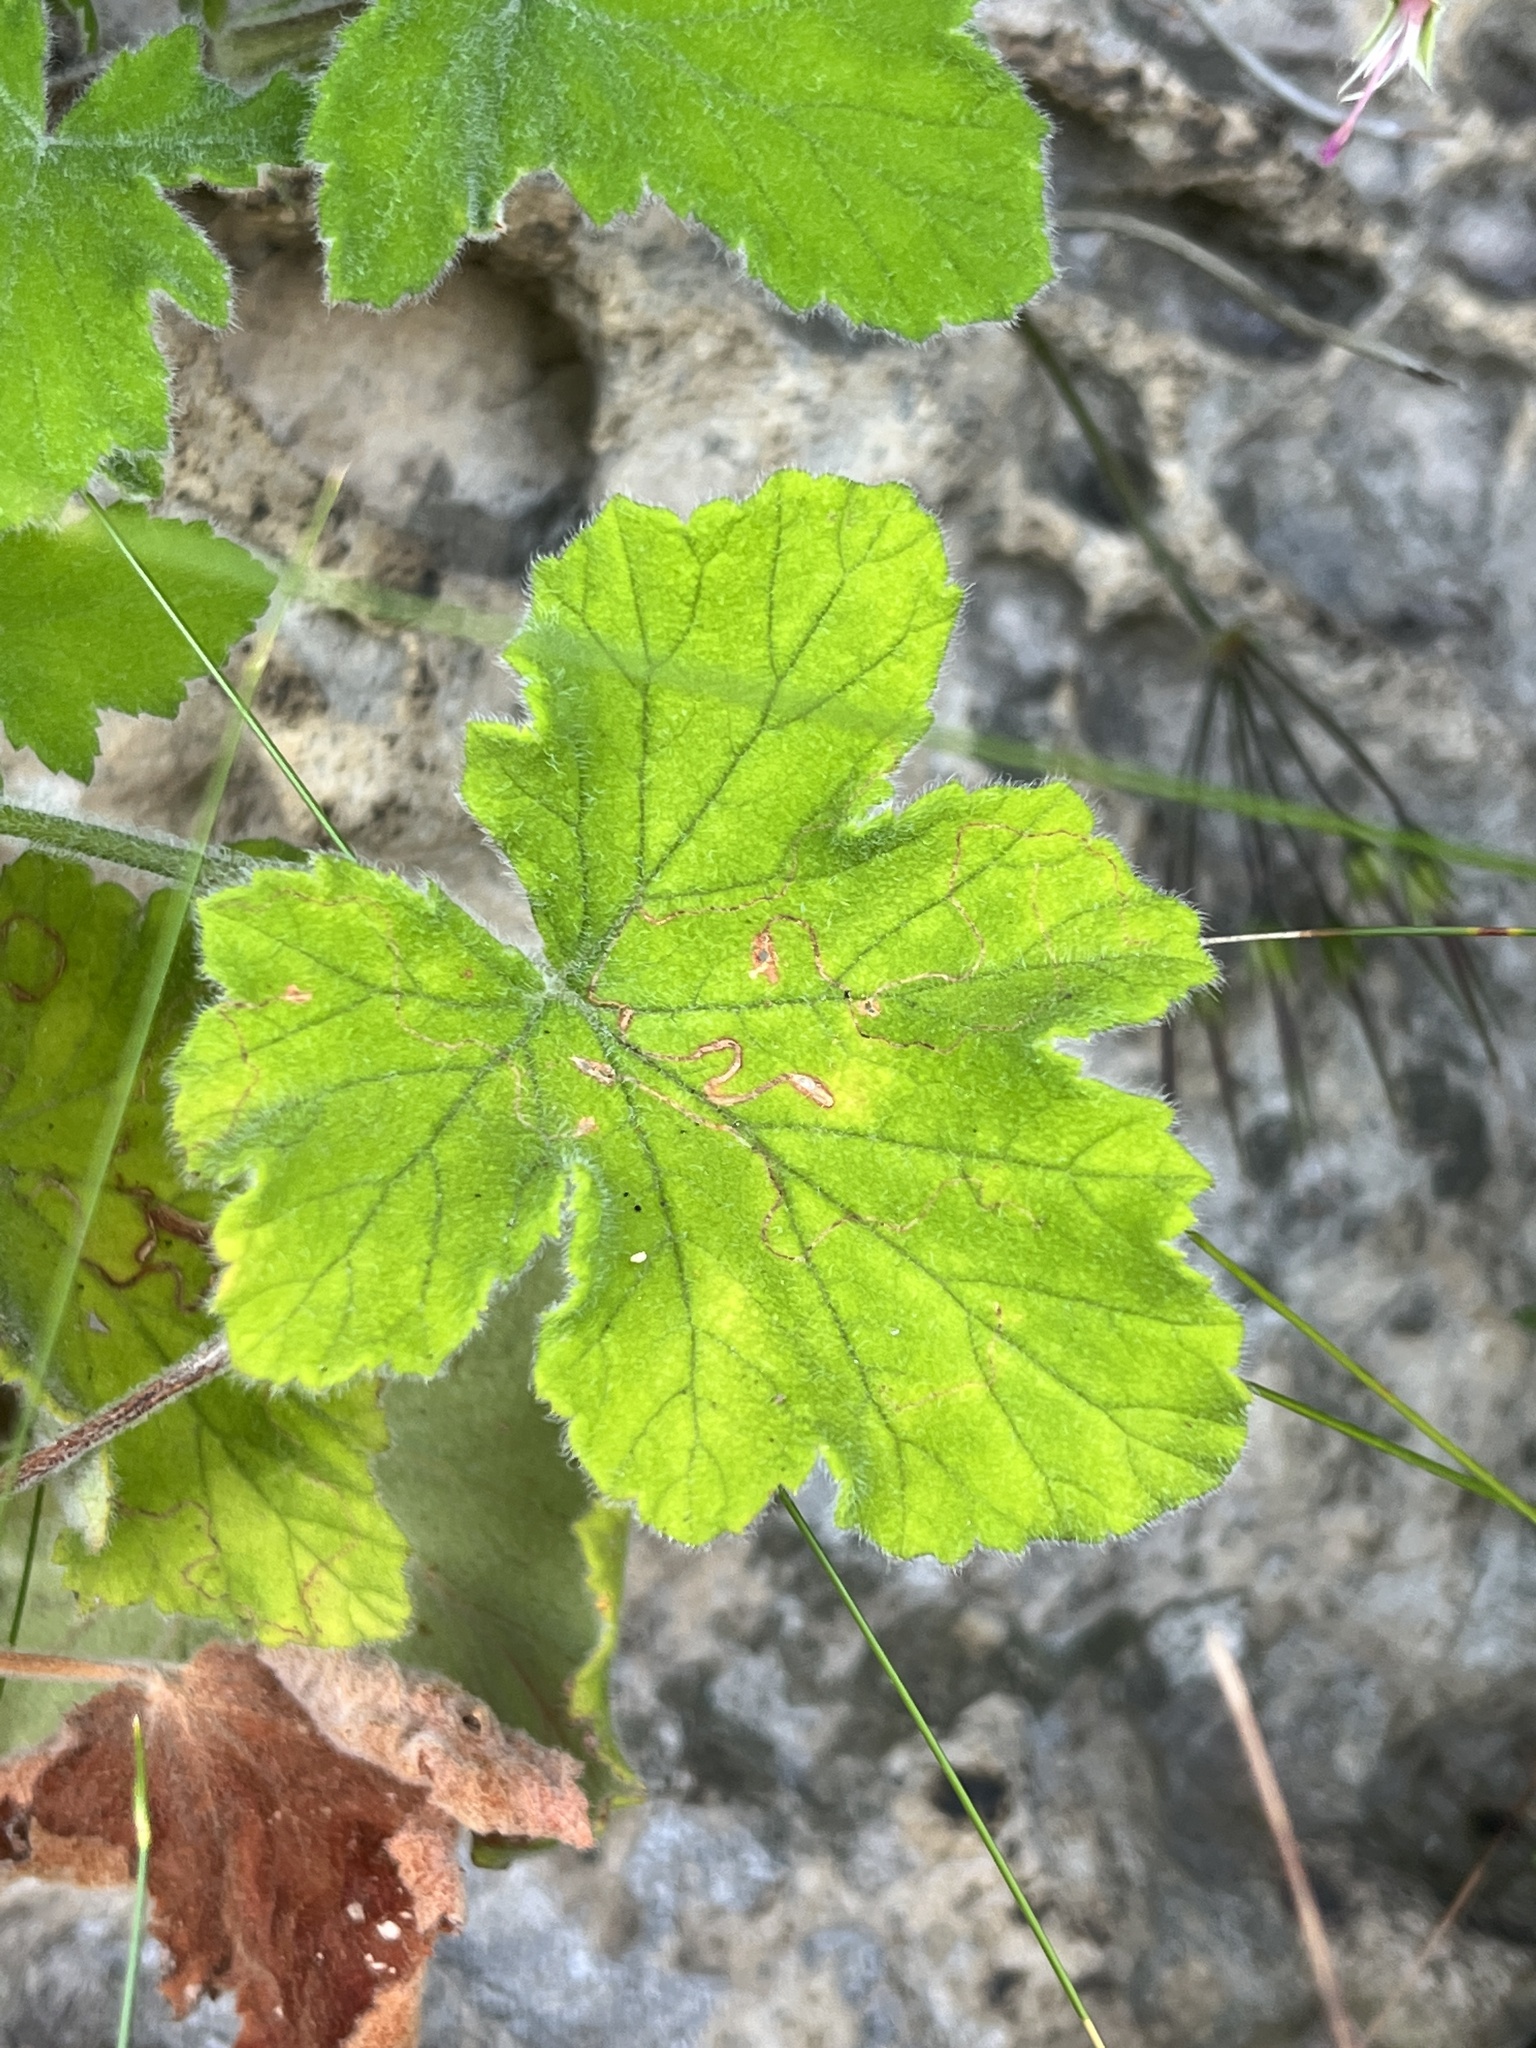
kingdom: Plantae
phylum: Tracheophyta
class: Magnoliopsida
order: Geraniales
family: Geraniaceae
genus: Pelargonium
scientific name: Pelargonium tomentosum
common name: Peppermint-scented geranium
